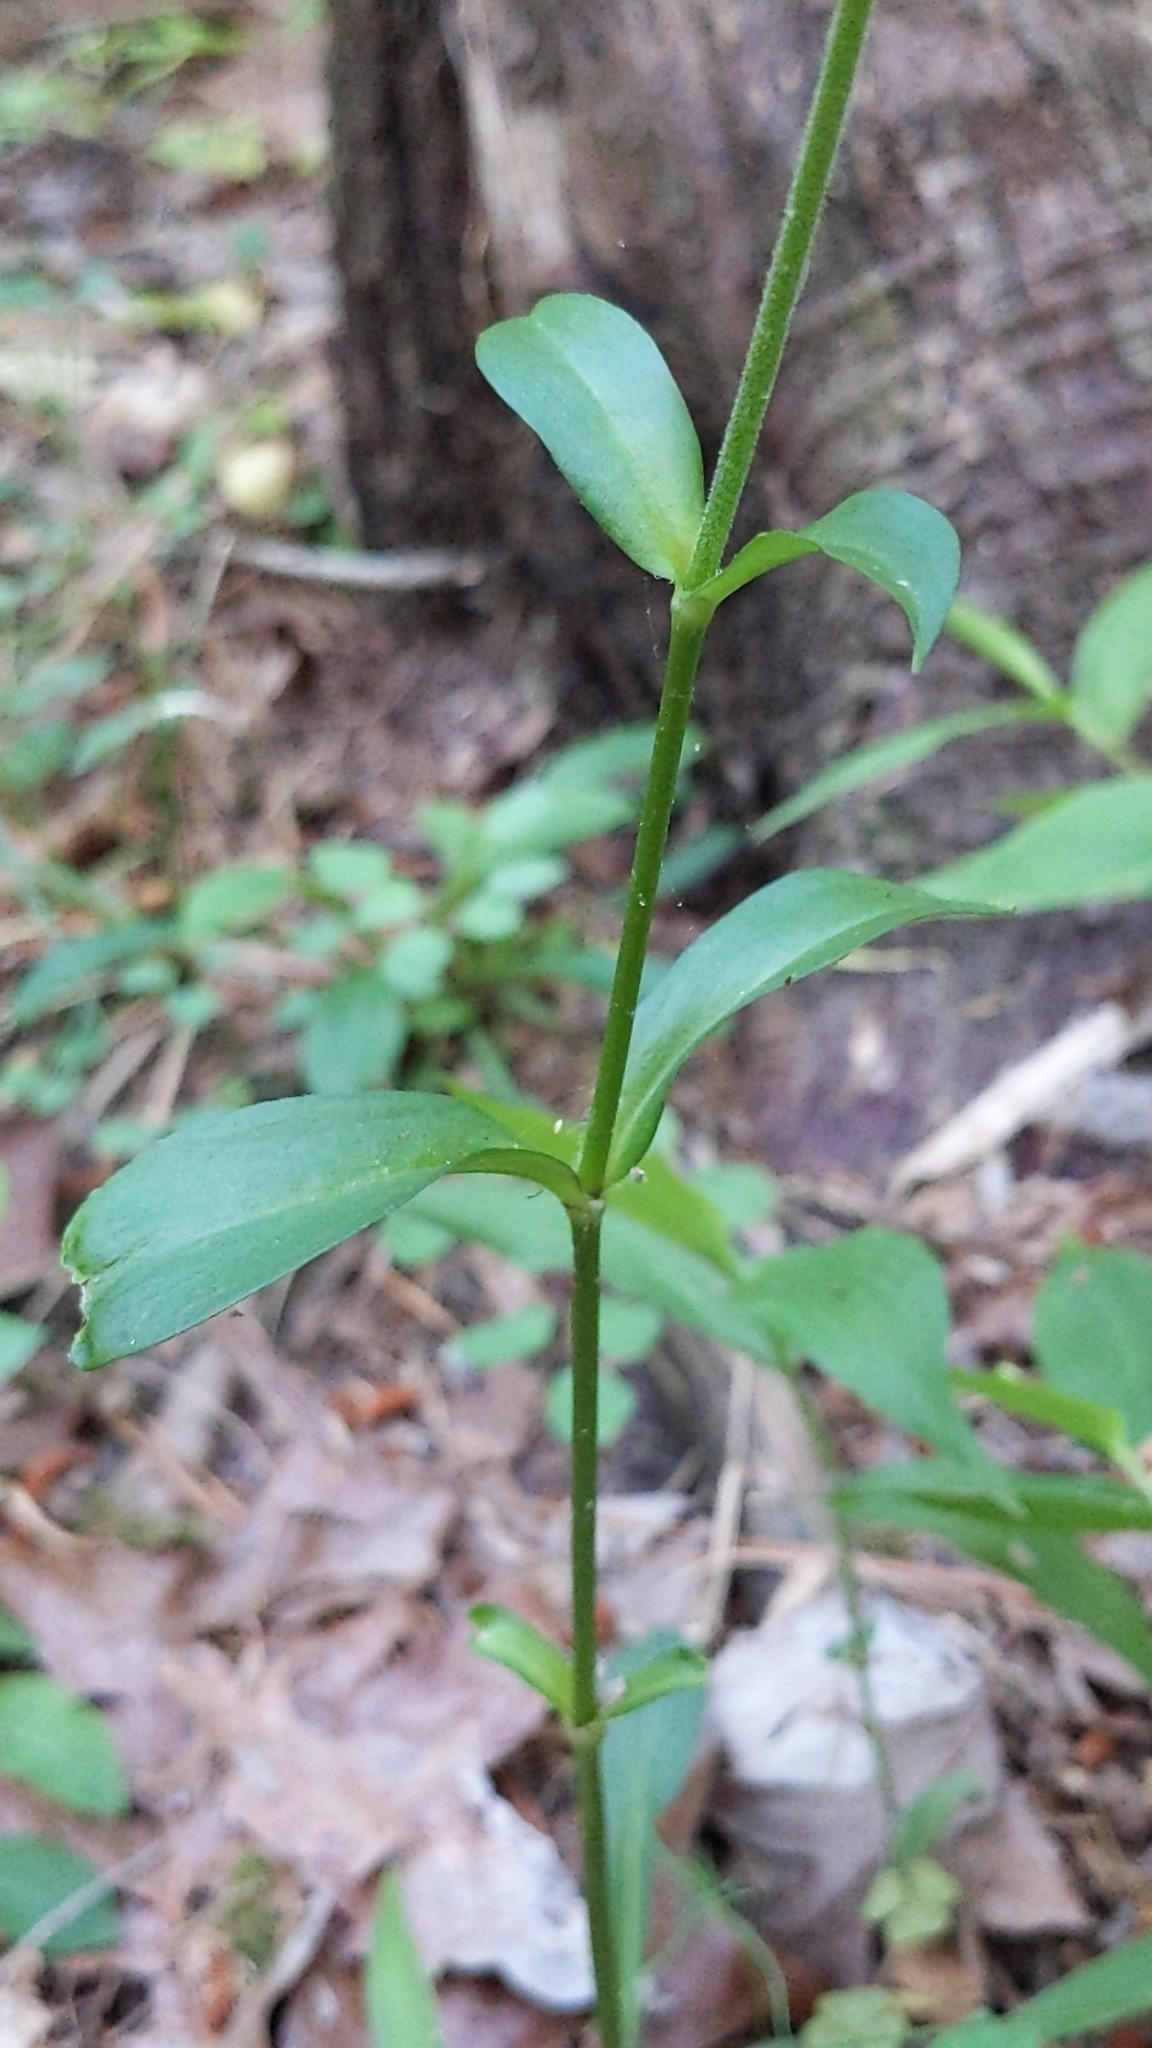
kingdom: Plantae
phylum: Tracheophyta
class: Magnoliopsida
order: Caryophyllales
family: Caryophyllaceae
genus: Silene
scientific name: Silene virginica
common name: Fire-pink
